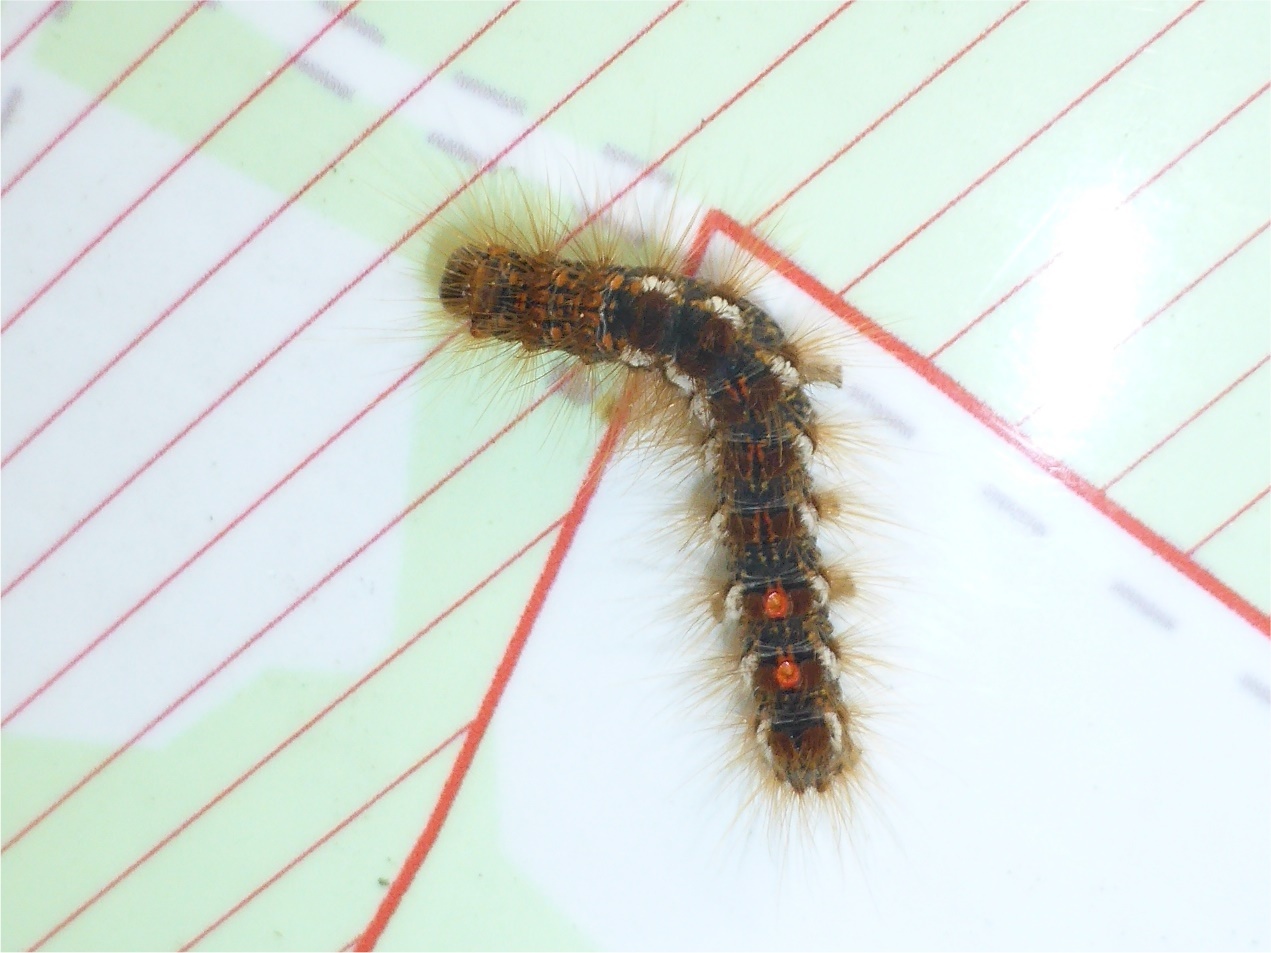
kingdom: Animalia
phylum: Arthropoda
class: Insecta
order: Lepidoptera
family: Erebidae
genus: Euproctis
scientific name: Euproctis chrysorrhoea
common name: Brown-tail
